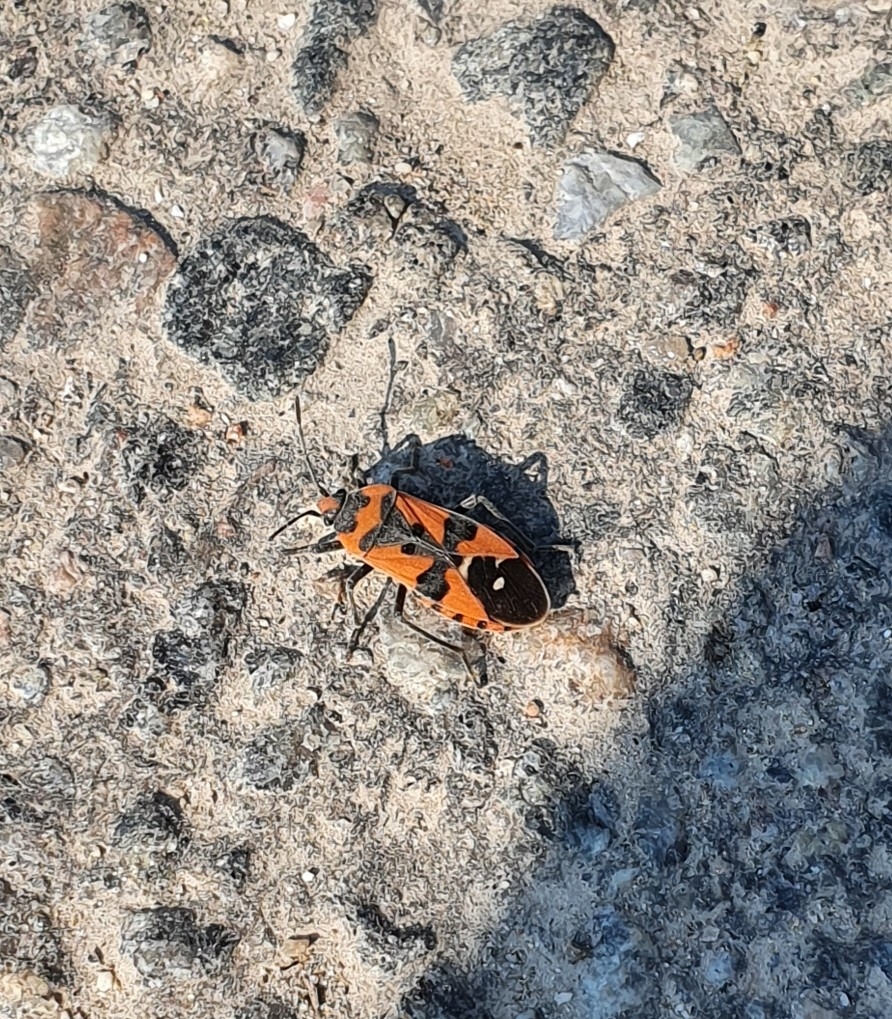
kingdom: Animalia
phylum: Arthropoda
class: Insecta
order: Hemiptera
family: Lygaeidae
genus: Lygaeus
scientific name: Lygaeus equestris
